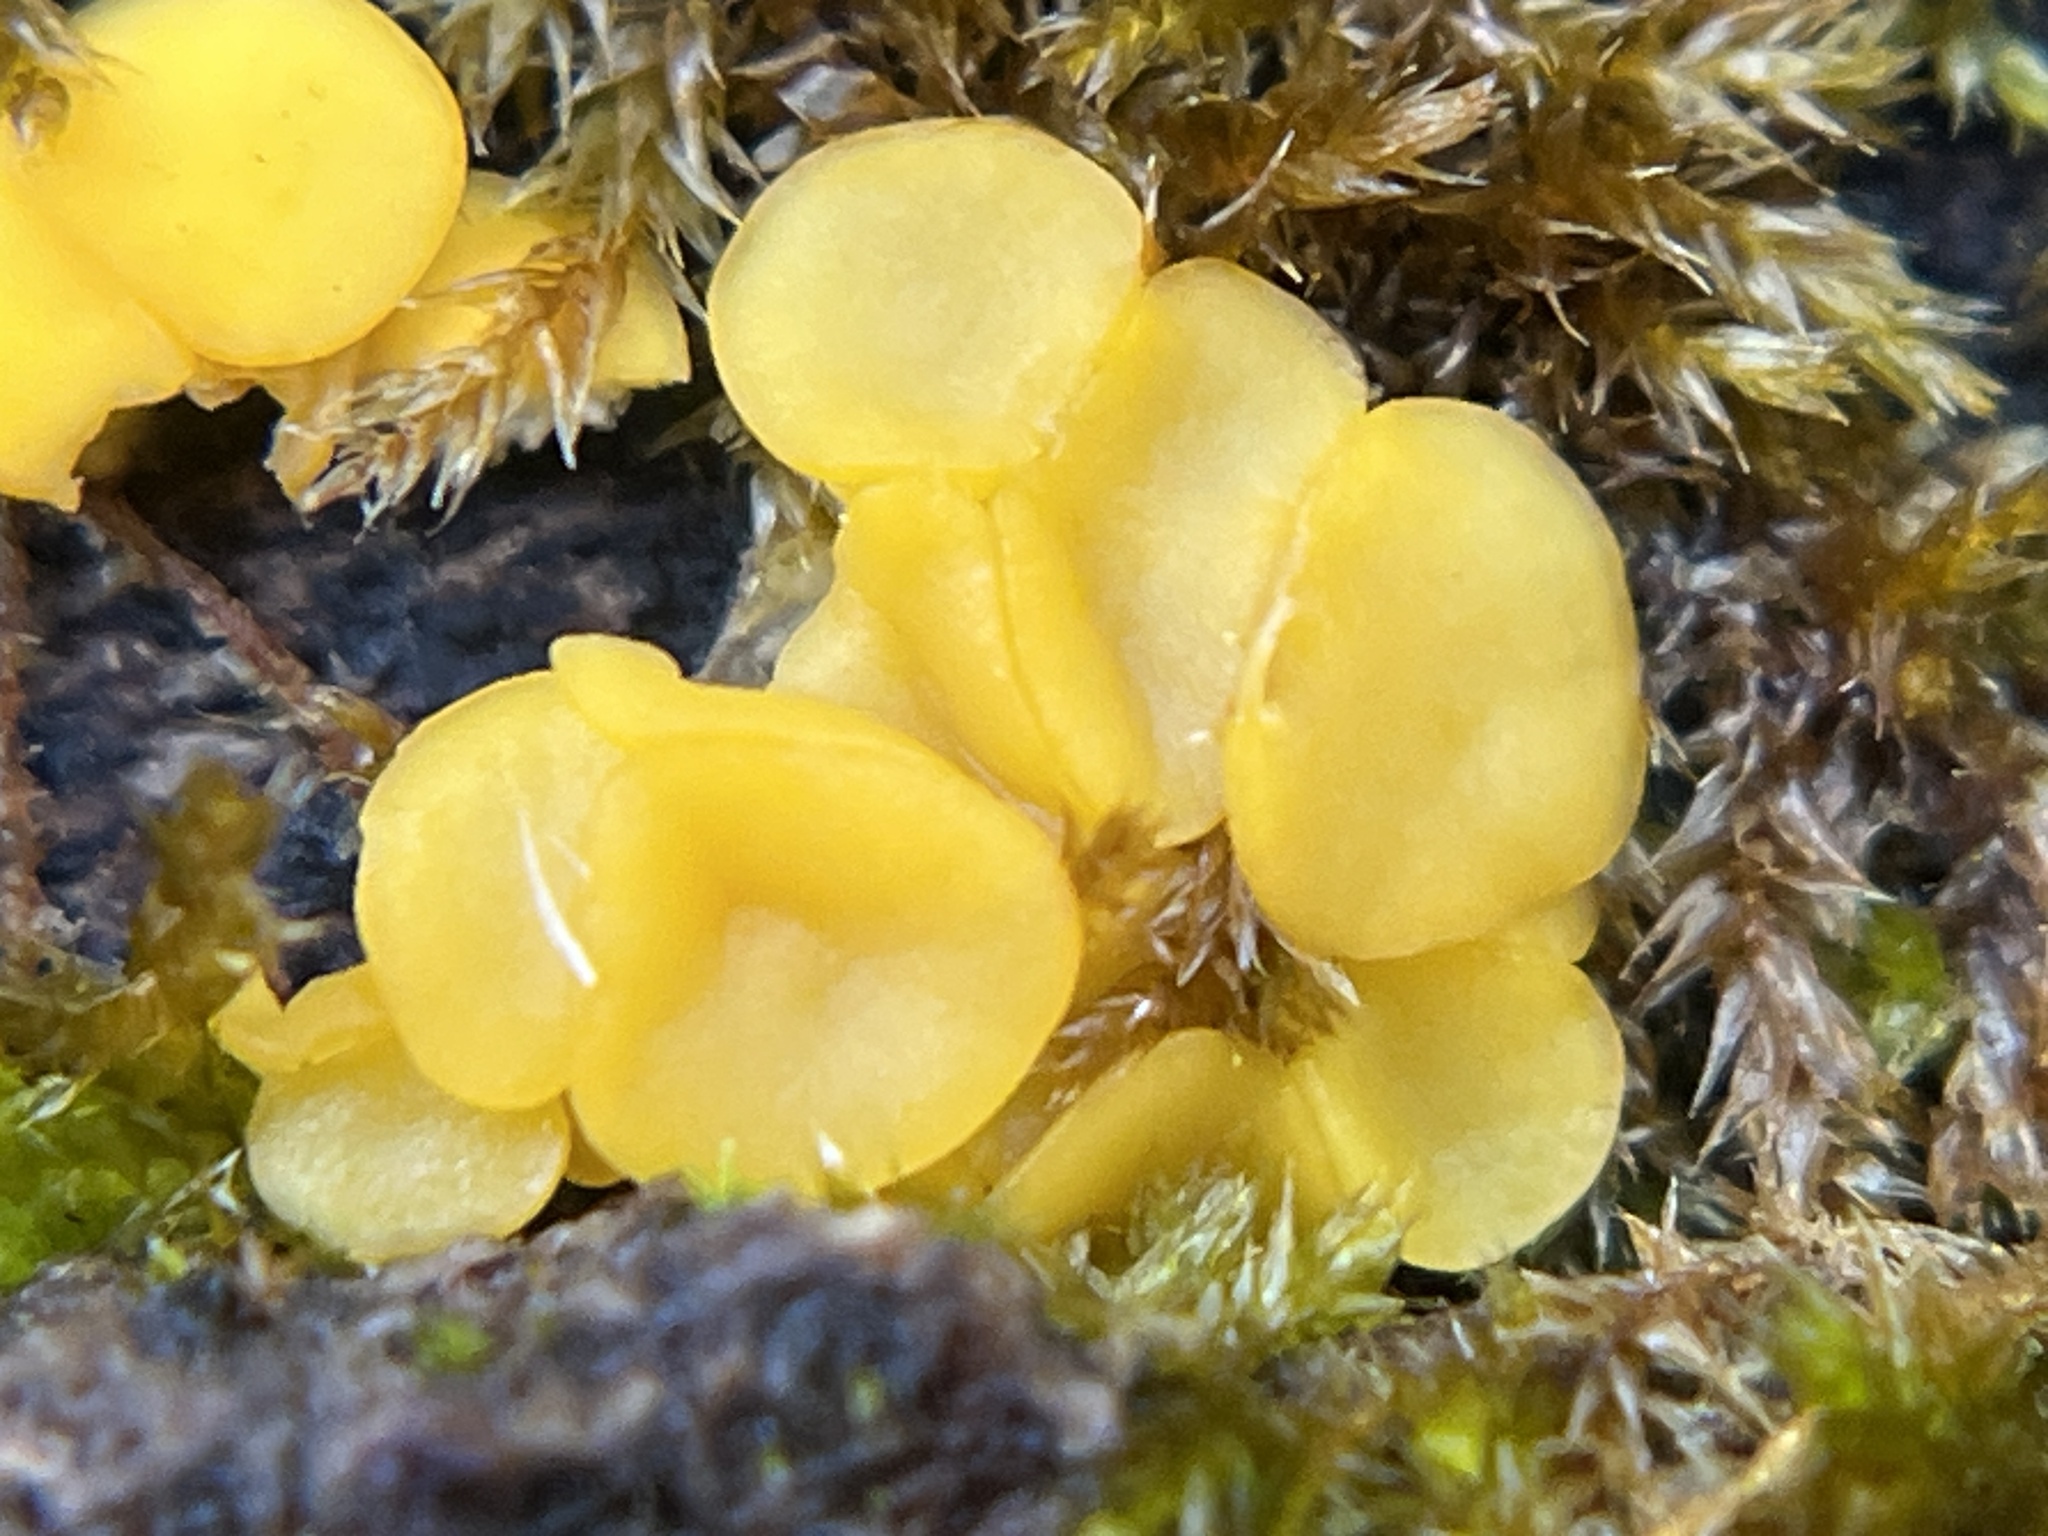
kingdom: Fungi
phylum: Ascomycota
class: Leotiomycetes
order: Helotiales
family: Pezizellaceae
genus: Calycina
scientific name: Calycina citrina
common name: Yellow fairy cups
